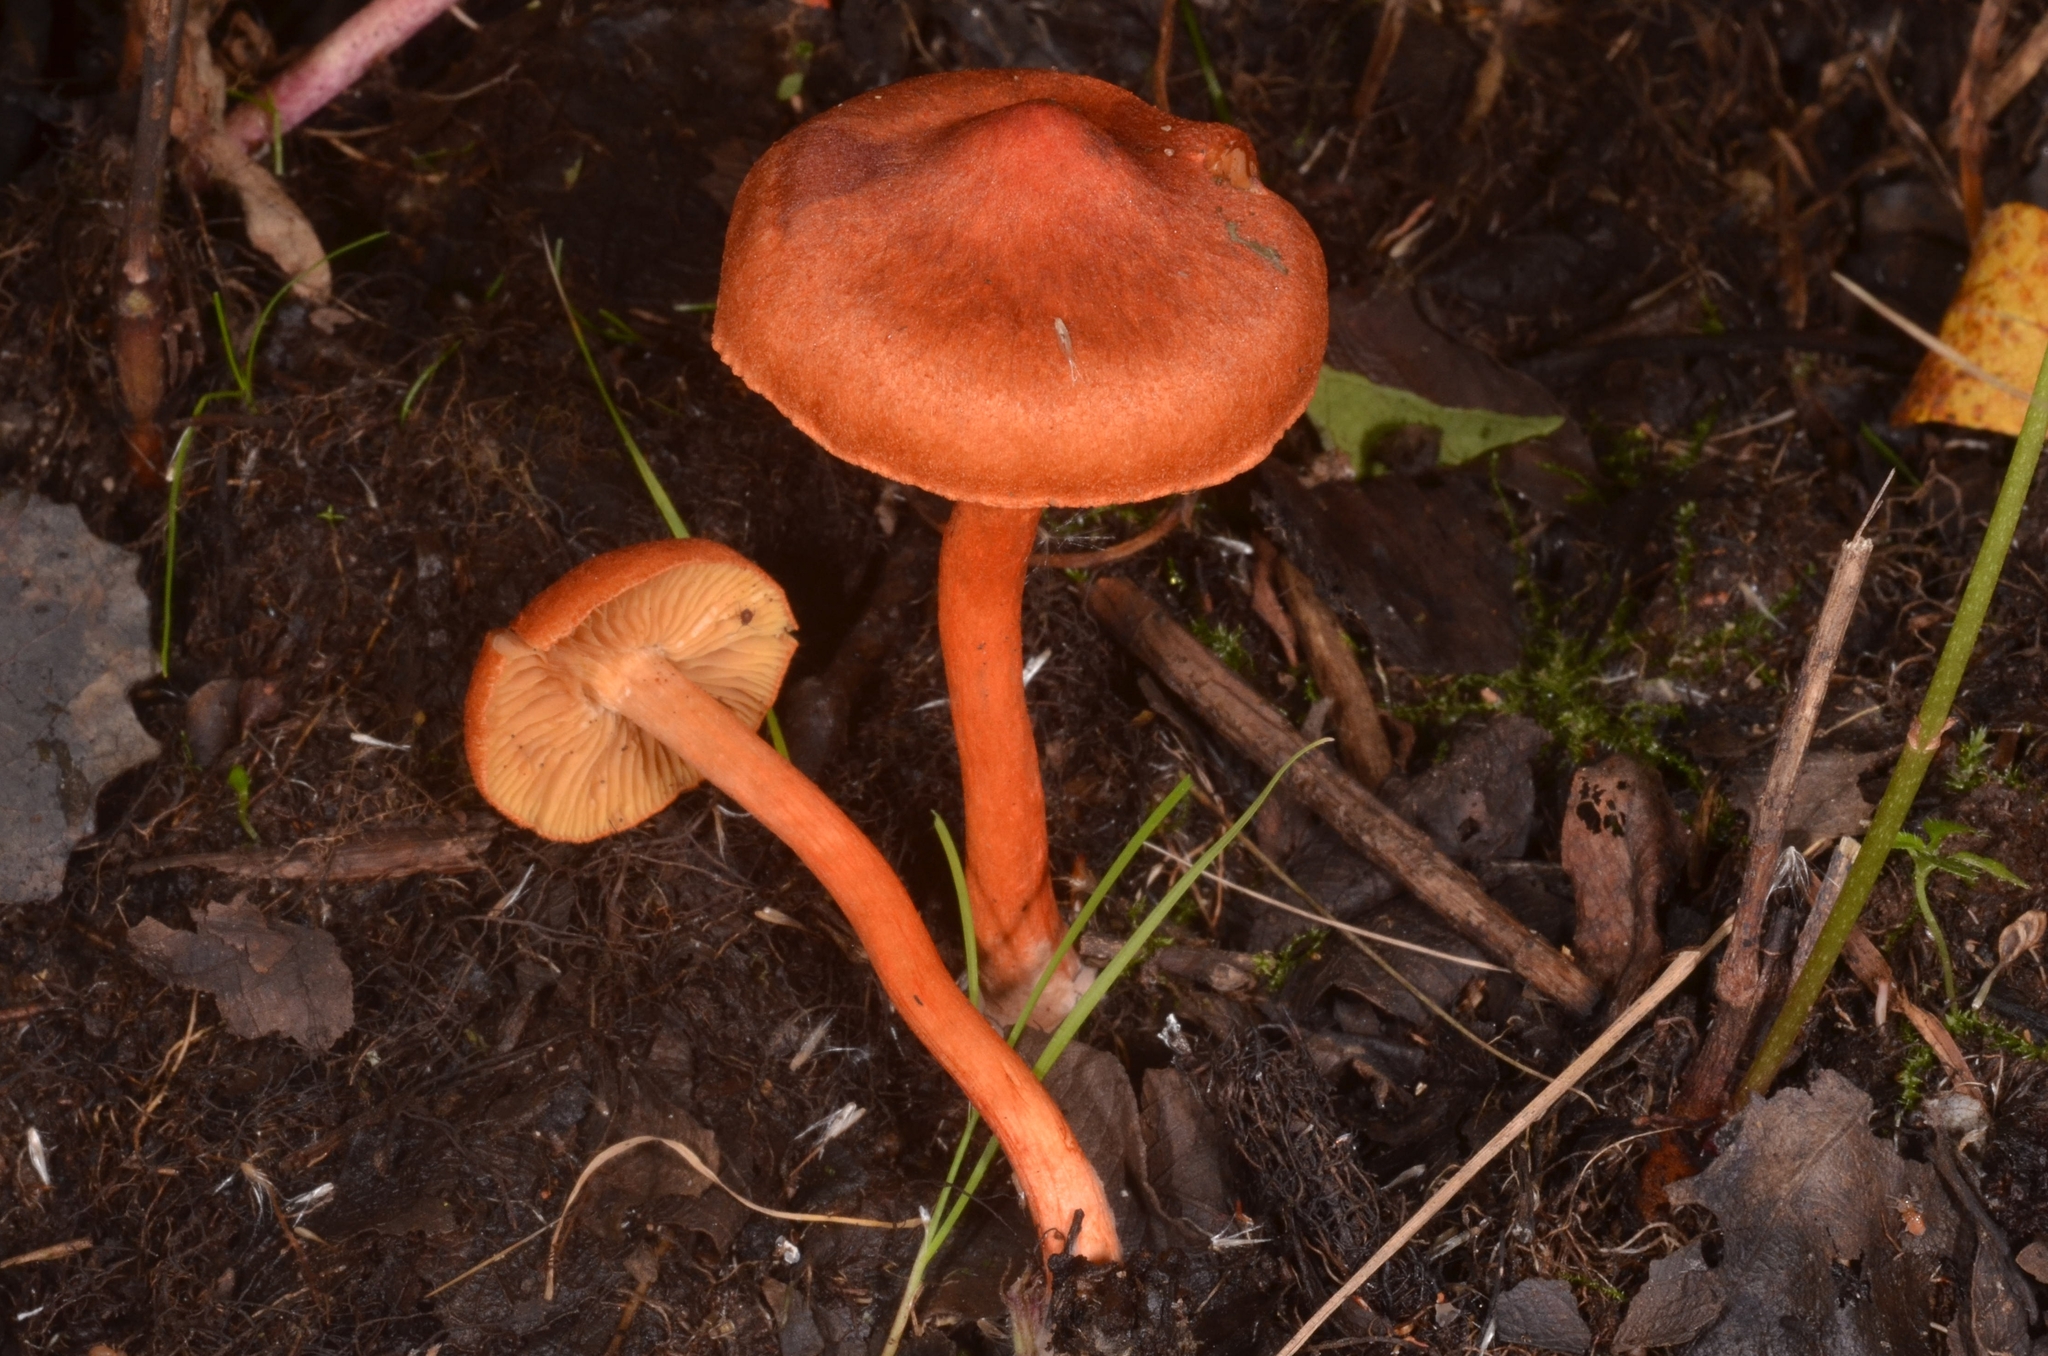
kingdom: Fungi
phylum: Basidiomycota
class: Agaricomycetes
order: Agaricales
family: Cortinariaceae
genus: Cortinarius
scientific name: Cortinarius uliginosus
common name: Marsh webcap
